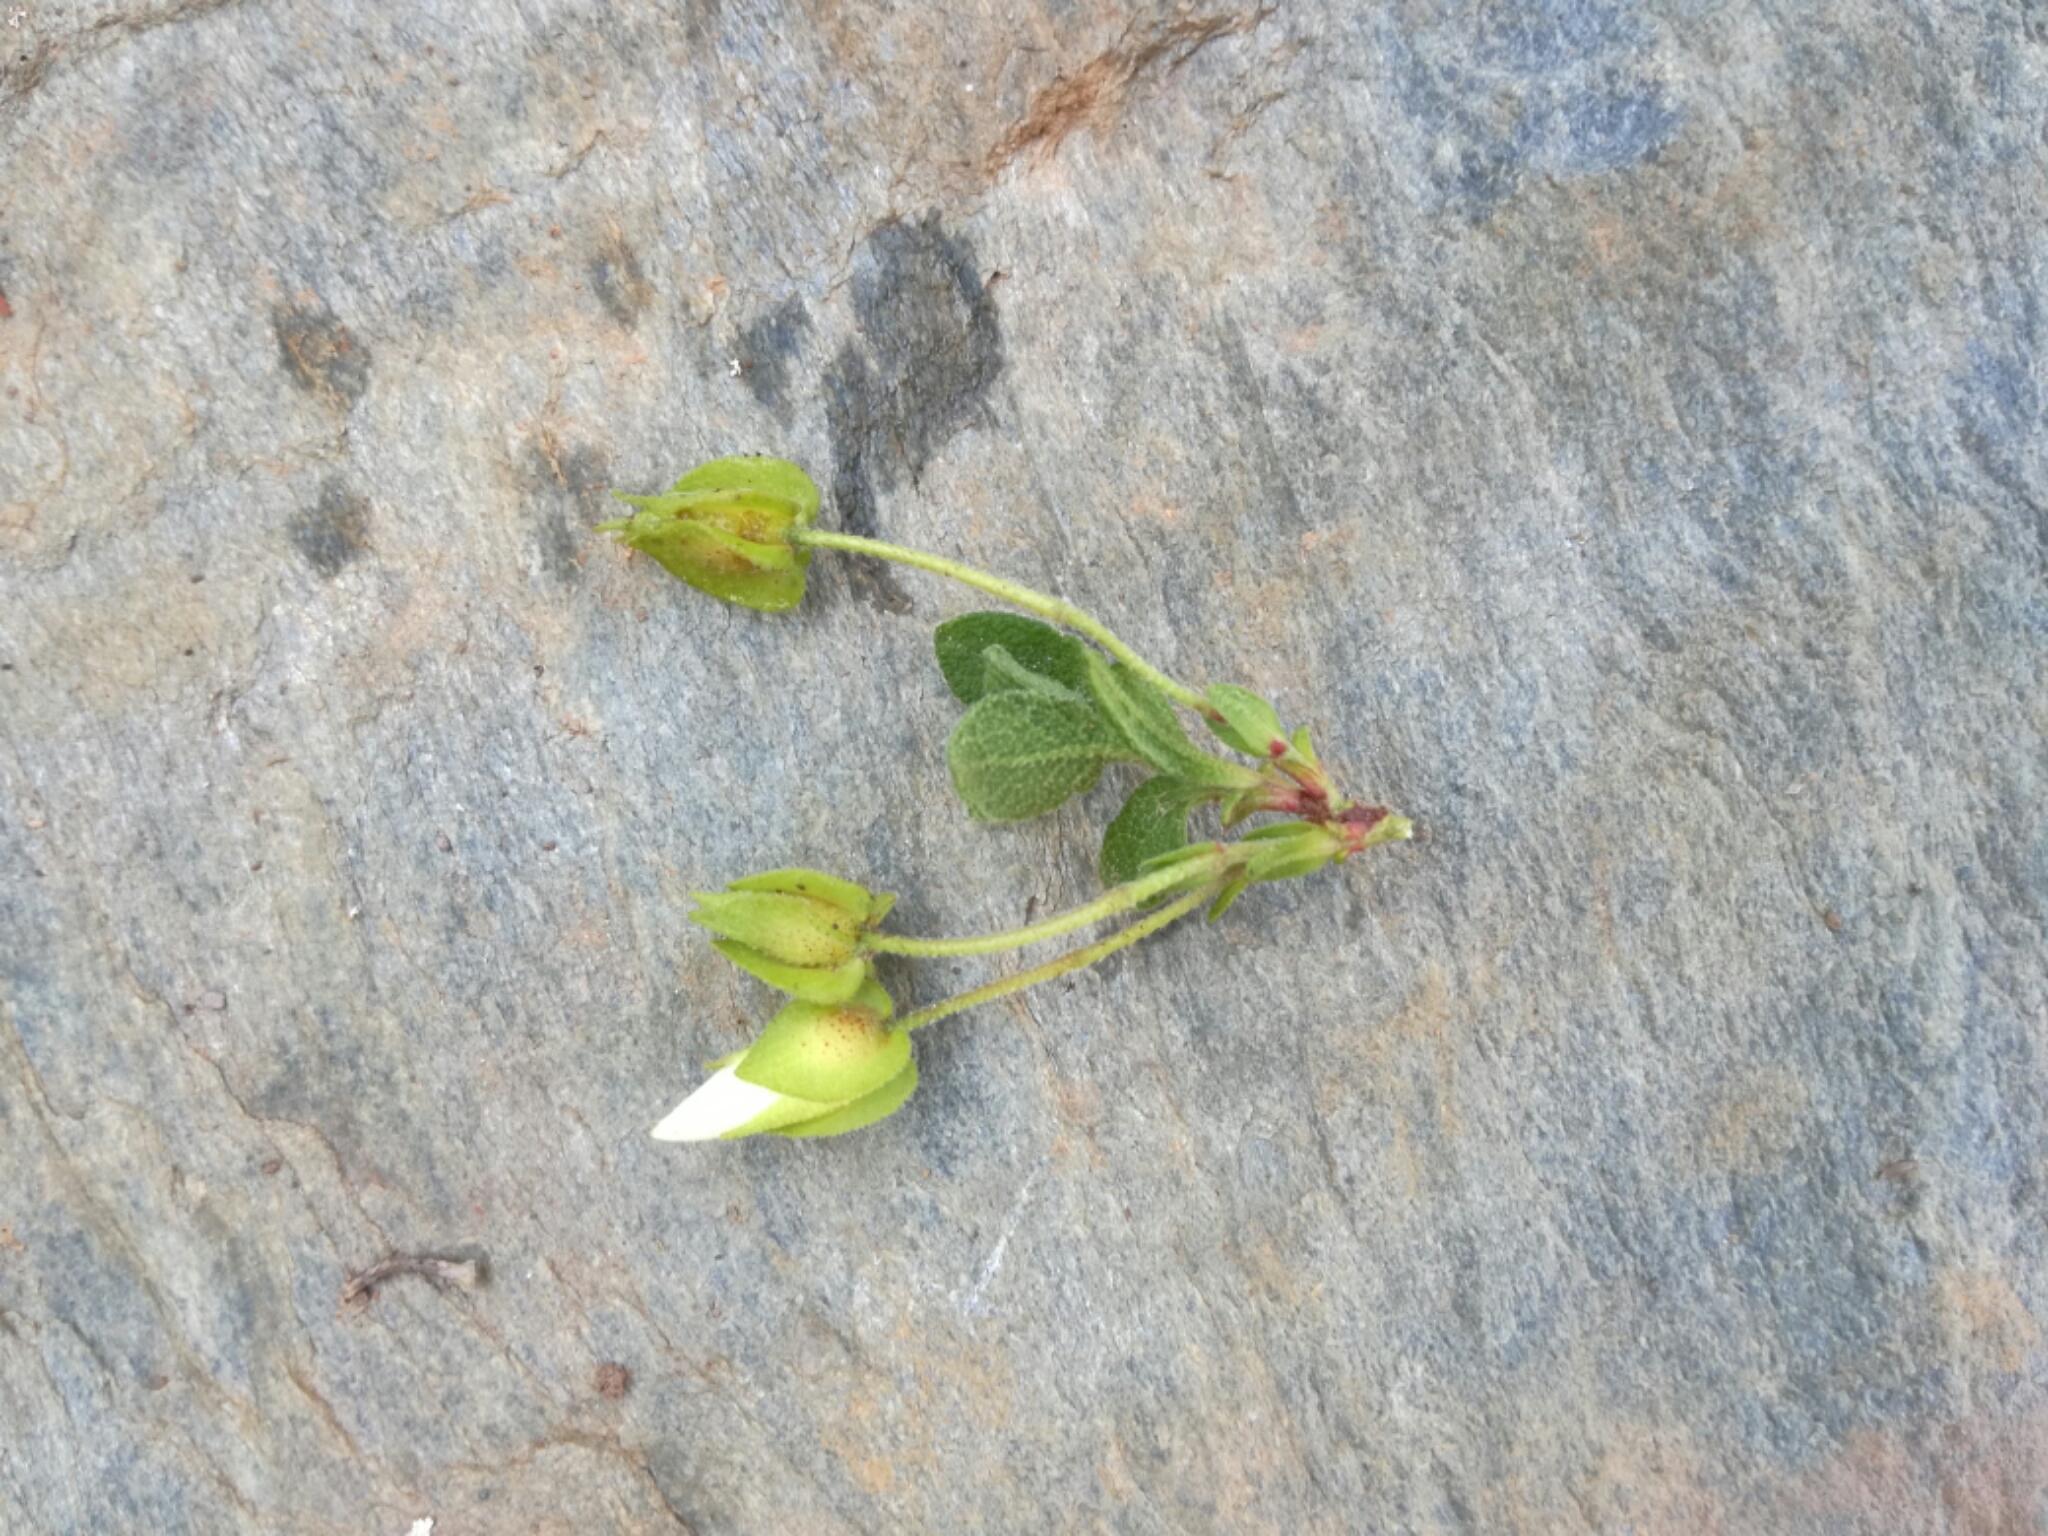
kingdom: Plantae
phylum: Tracheophyta
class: Magnoliopsida
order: Malvales
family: Cistaceae
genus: Cistus
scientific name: Cistus salviifolius
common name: Salvia cistus
